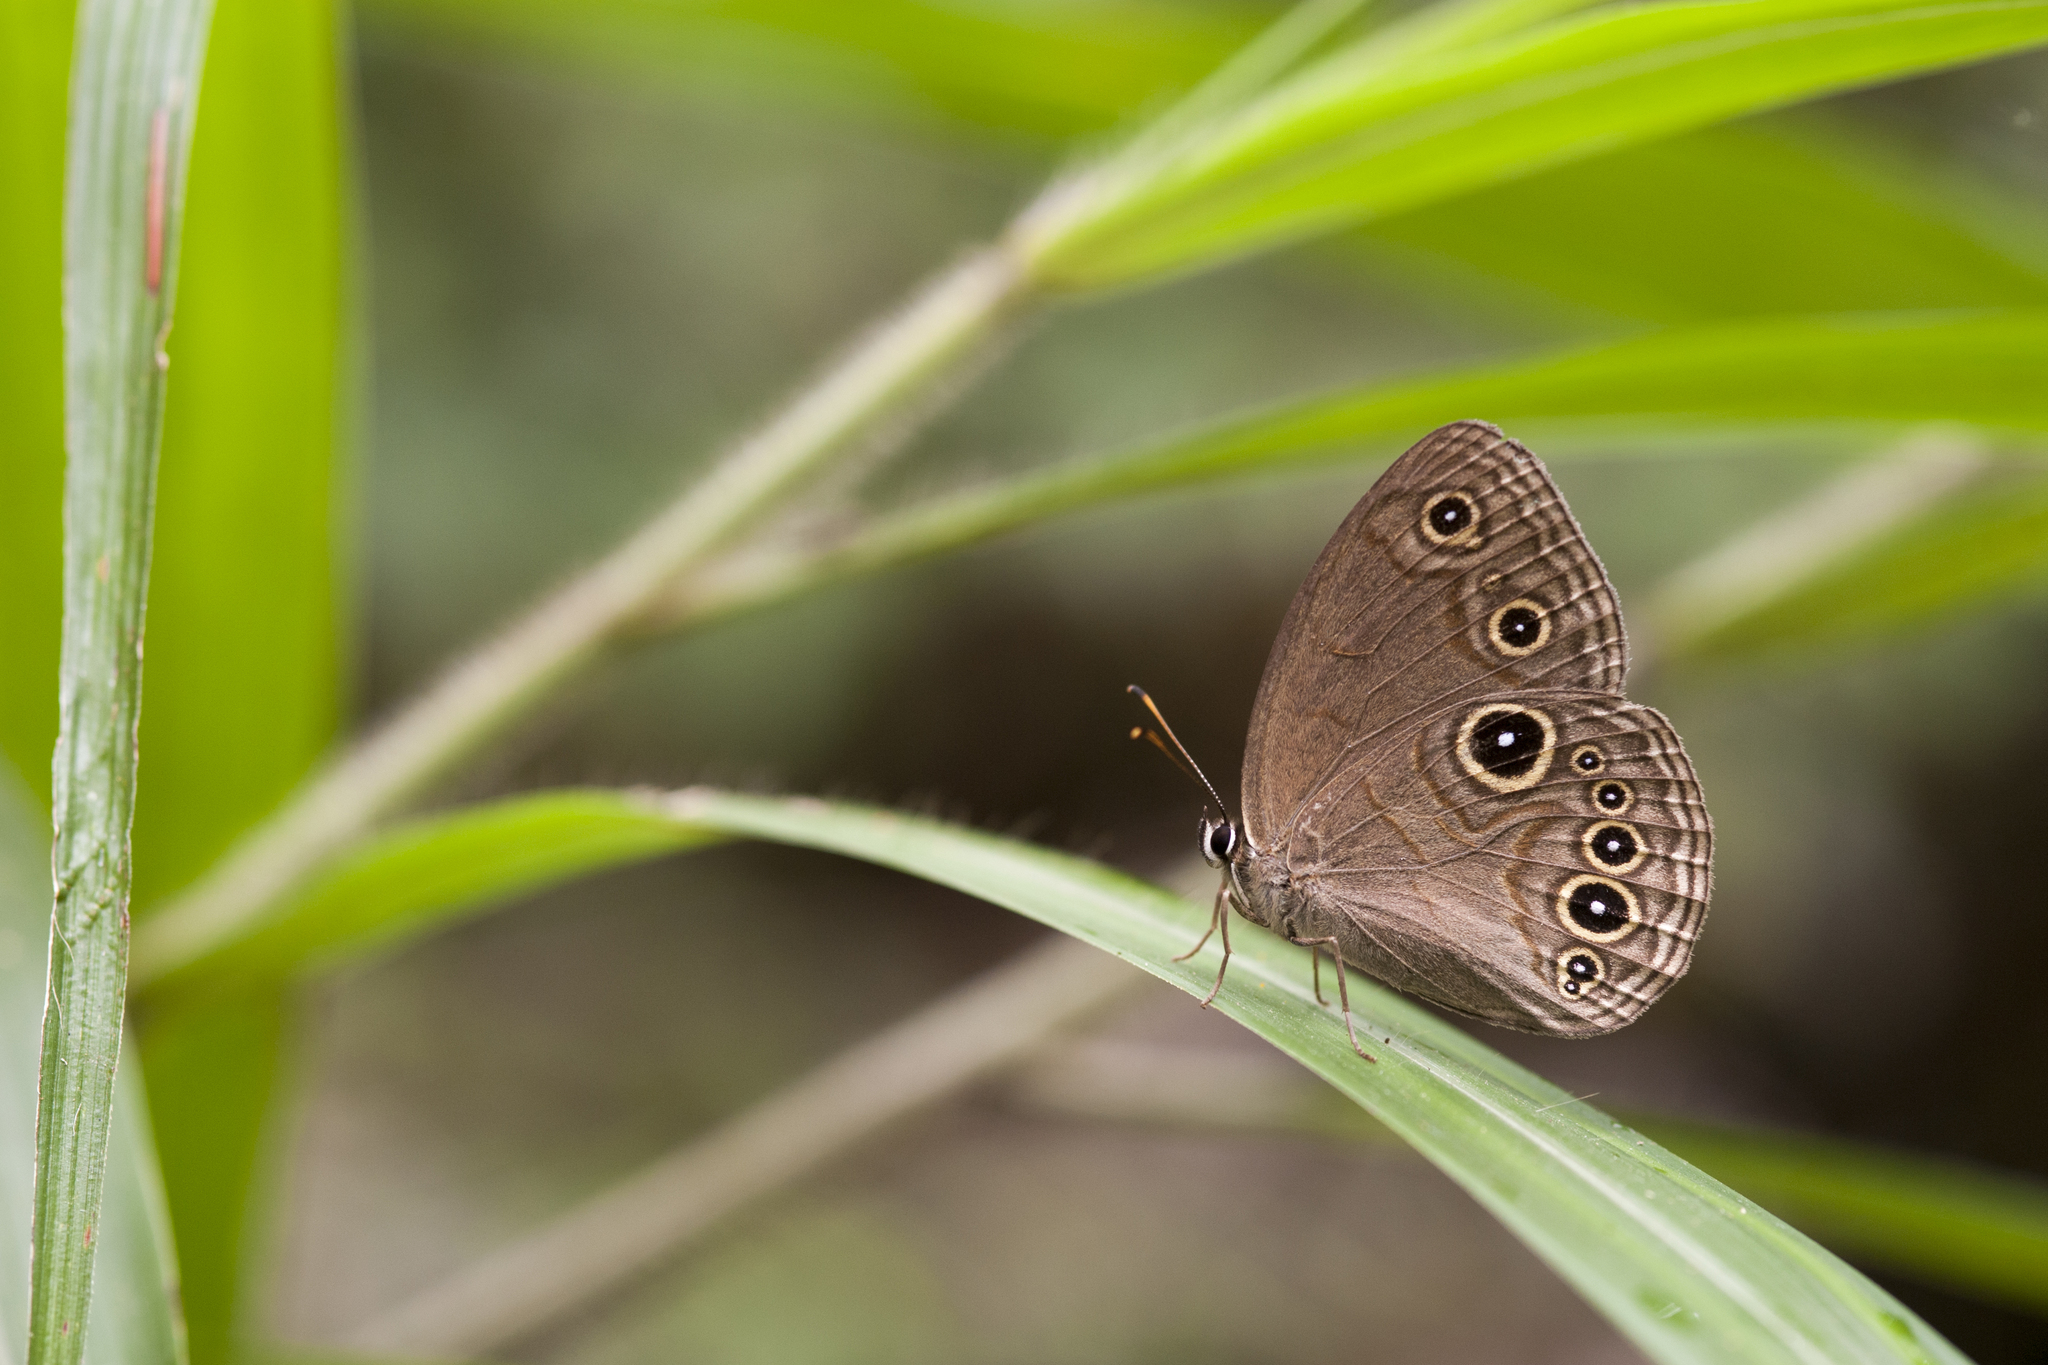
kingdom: Animalia
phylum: Arthropoda
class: Insecta
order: Lepidoptera
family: Nymphalidae
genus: Lethe
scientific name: Lethe butleri
